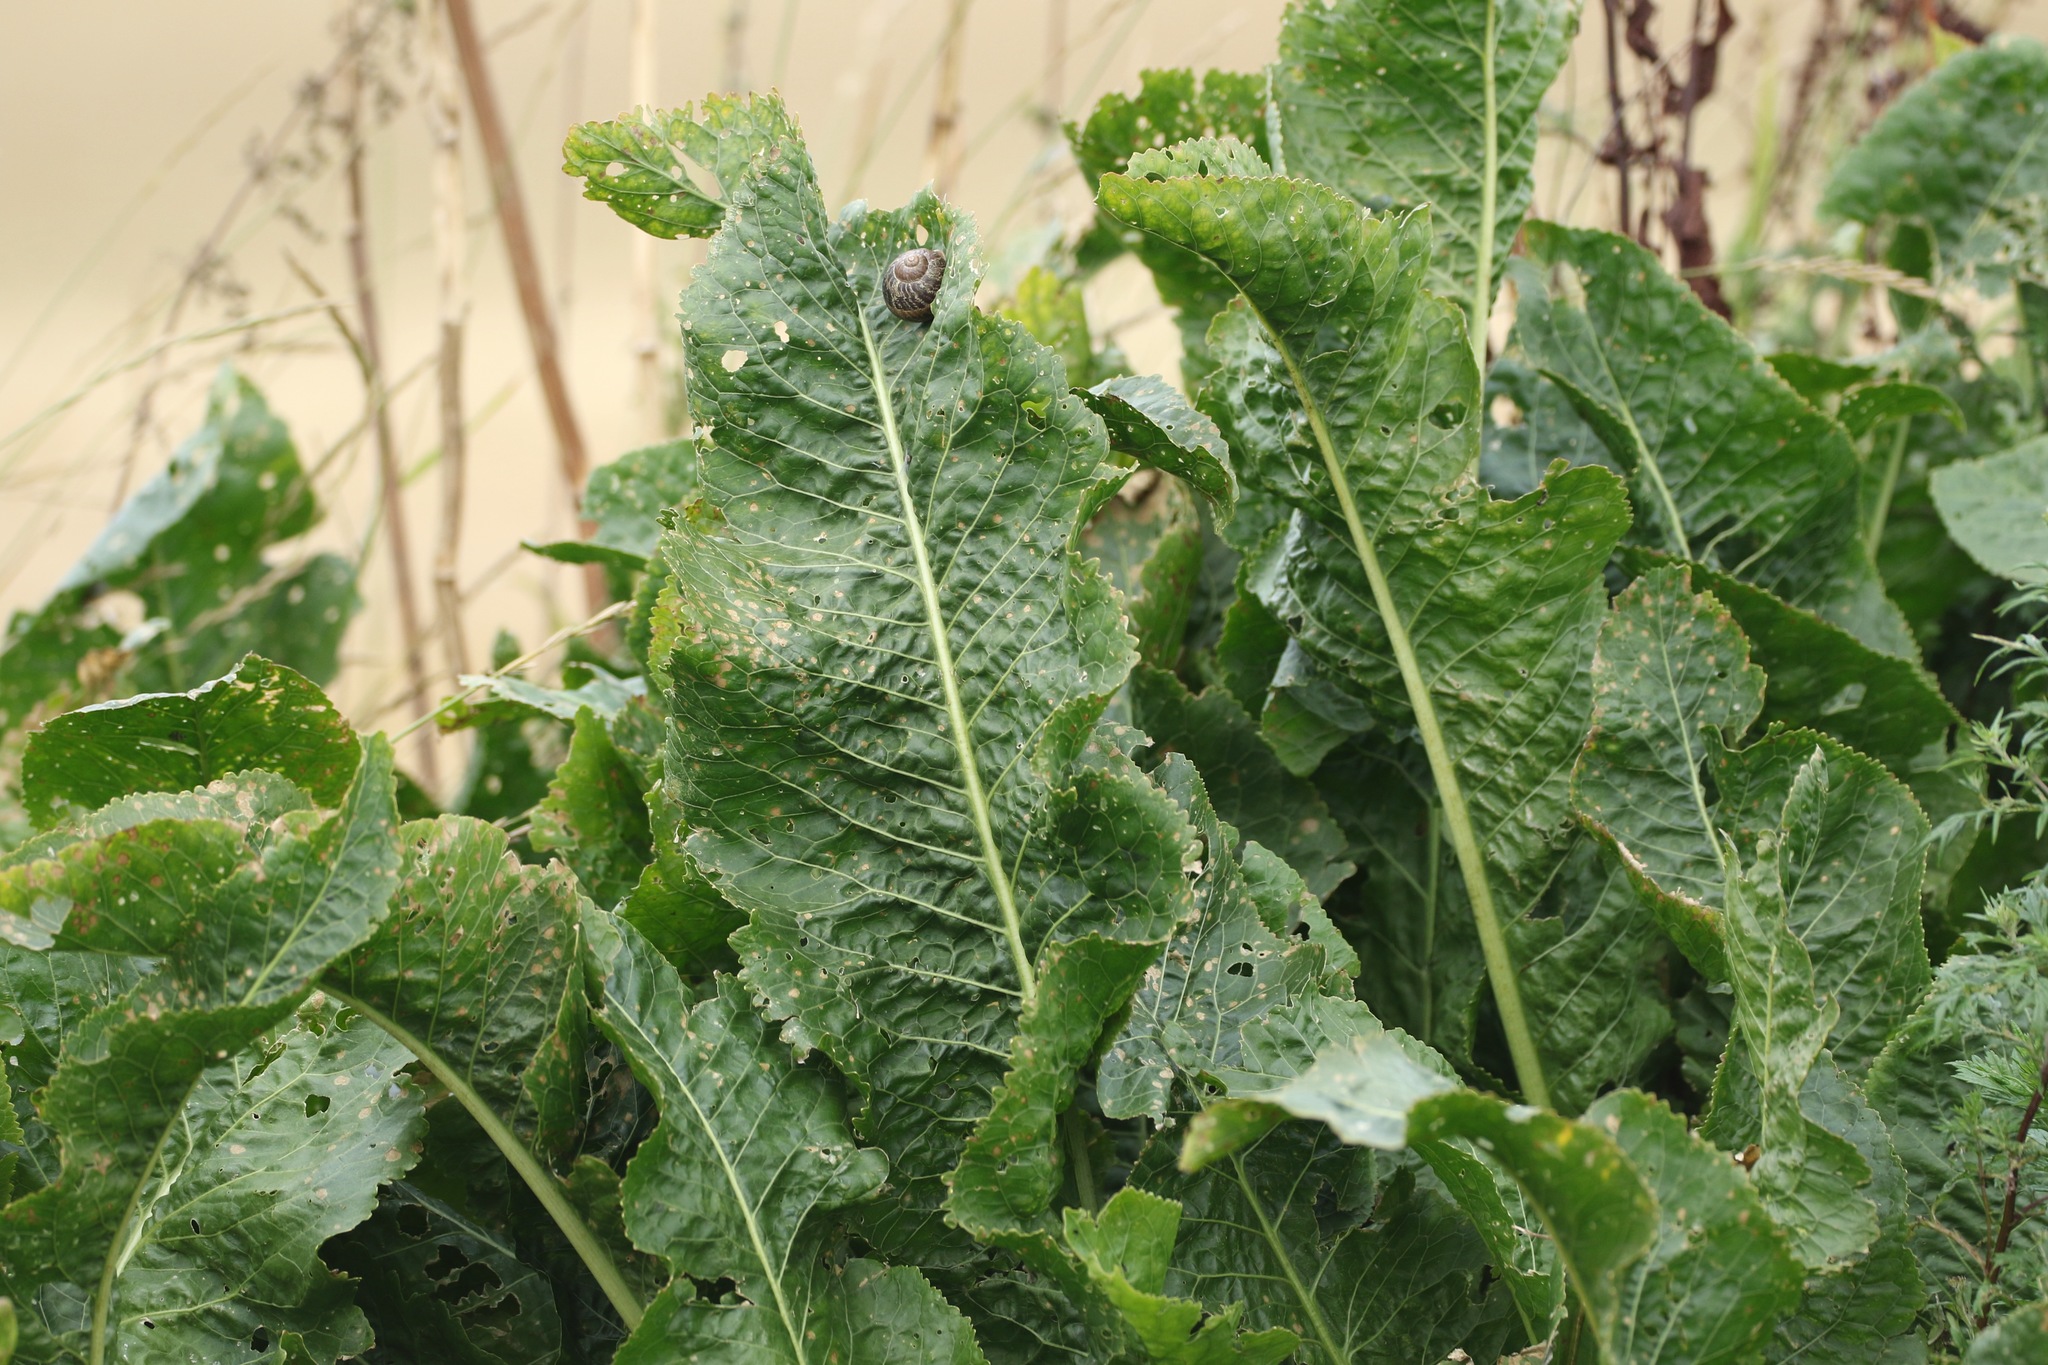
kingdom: Plantae
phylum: Tracheophyta
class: Magnoliopsida
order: Brassicales
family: Brassicaceae
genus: Armoracia
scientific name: Armoracia rusticana
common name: Horseradish
